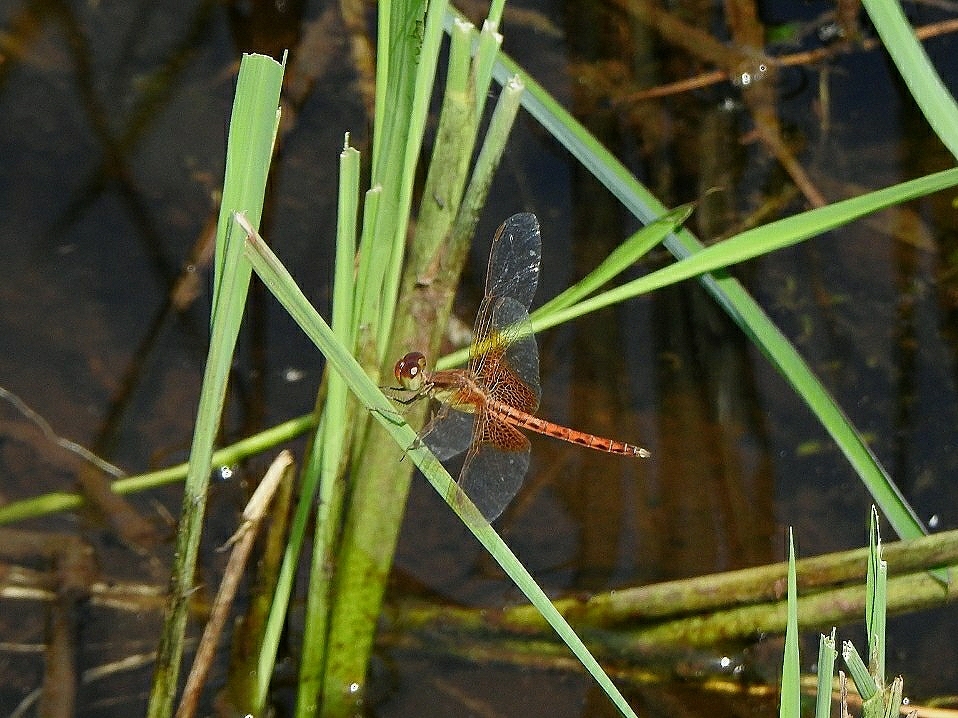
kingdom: Animalia
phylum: Arthropoda
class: Insecta
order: Odonata
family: Libellulidae
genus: Neurothemis
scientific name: Neurothemis intermedia
